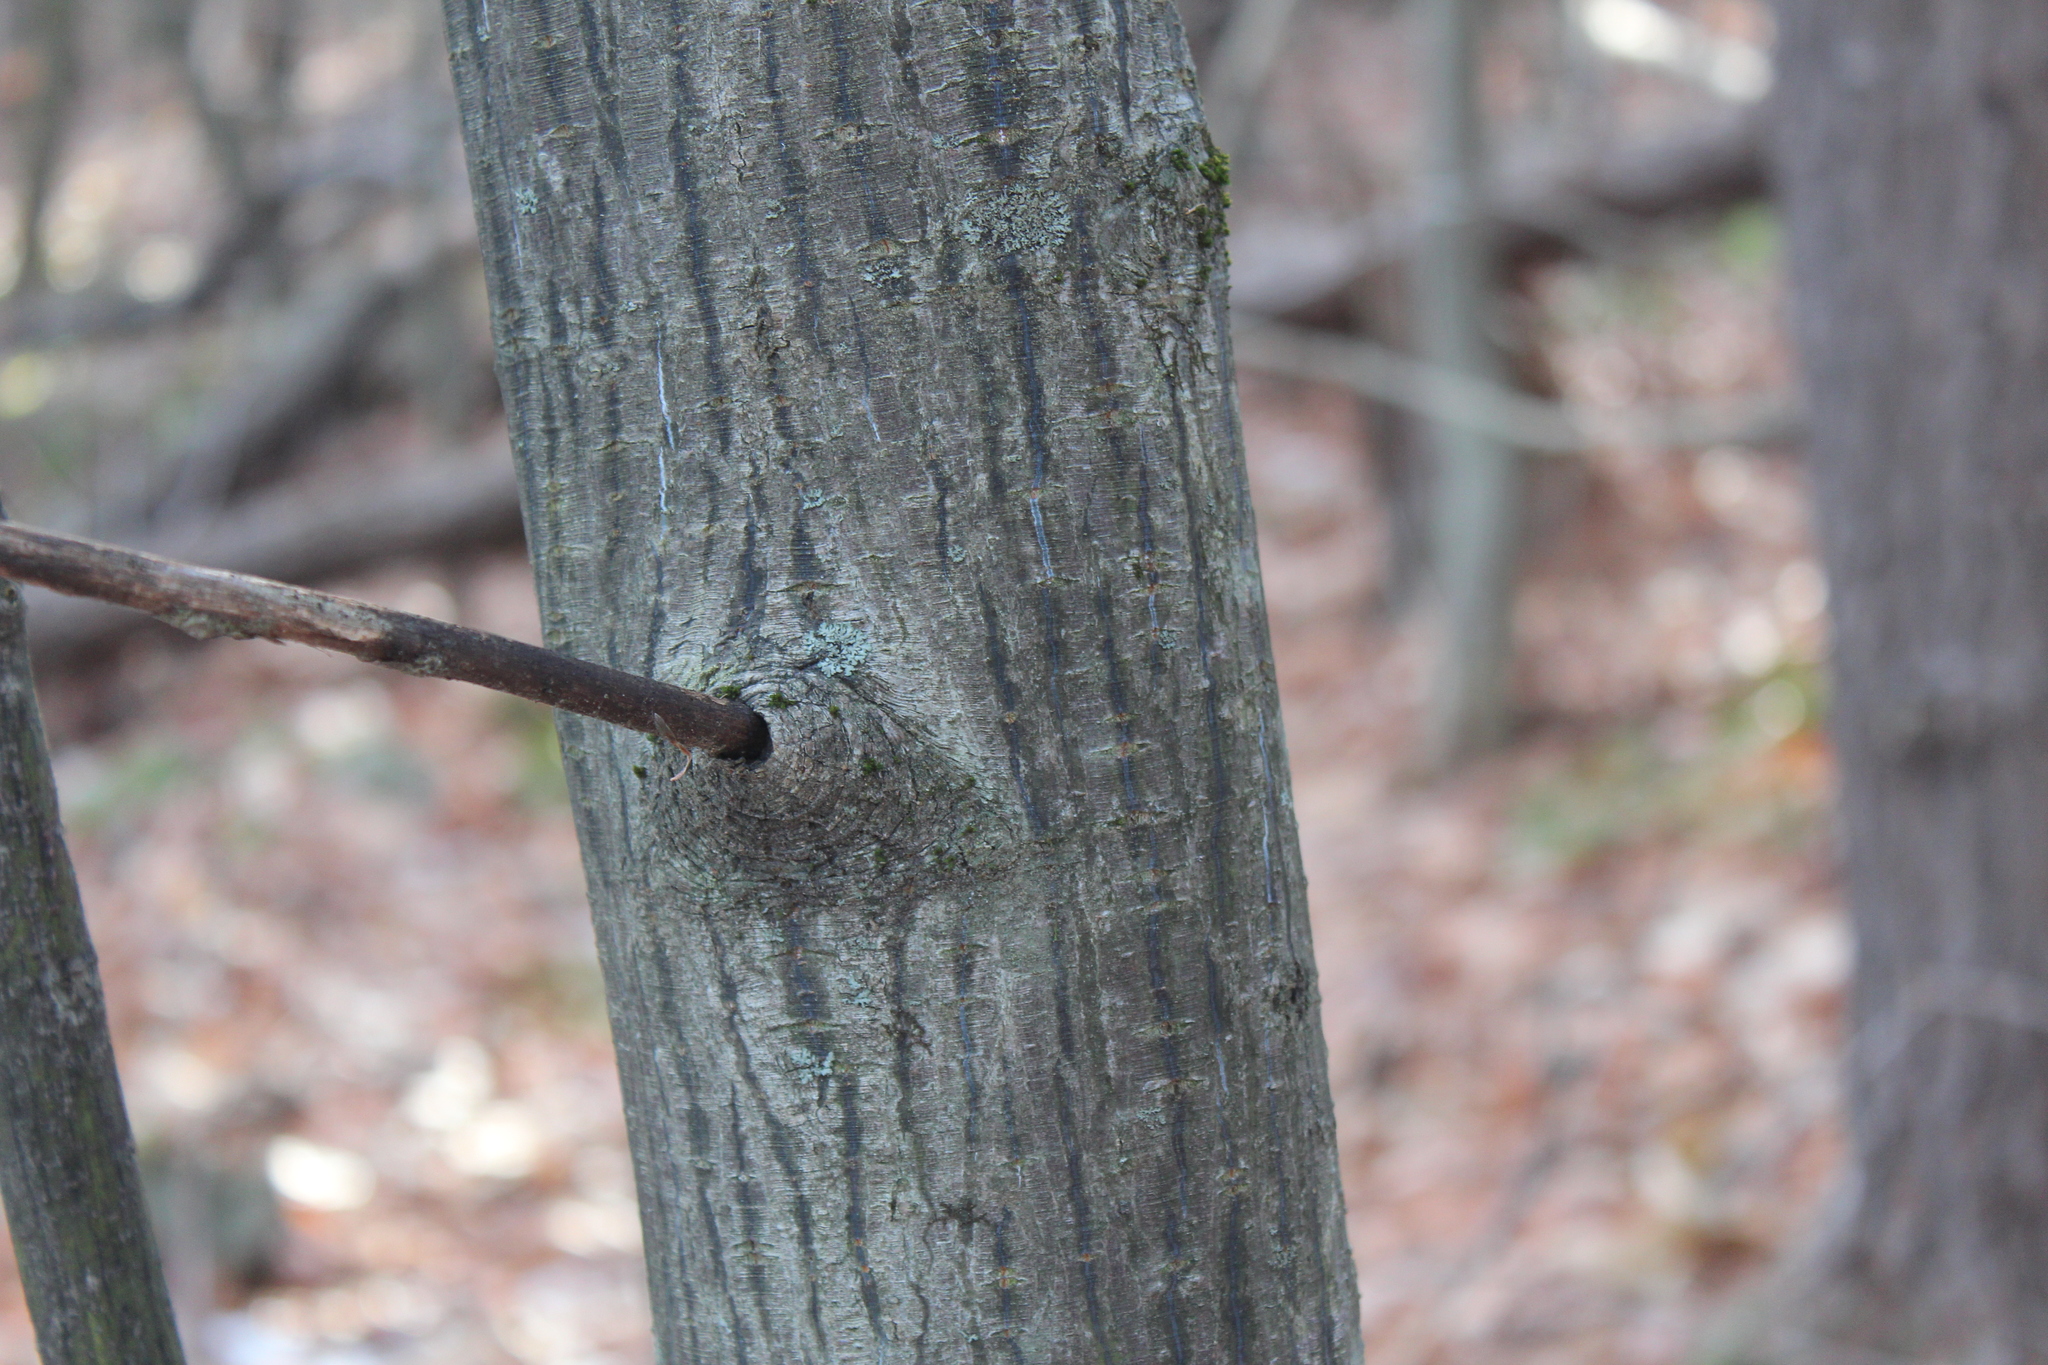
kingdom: Plantae
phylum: Tracheophyta
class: Magnoliopsida
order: Sapindales
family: Sapindaceae
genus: Acer
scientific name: Acer pensylvanicum
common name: Moosewood
